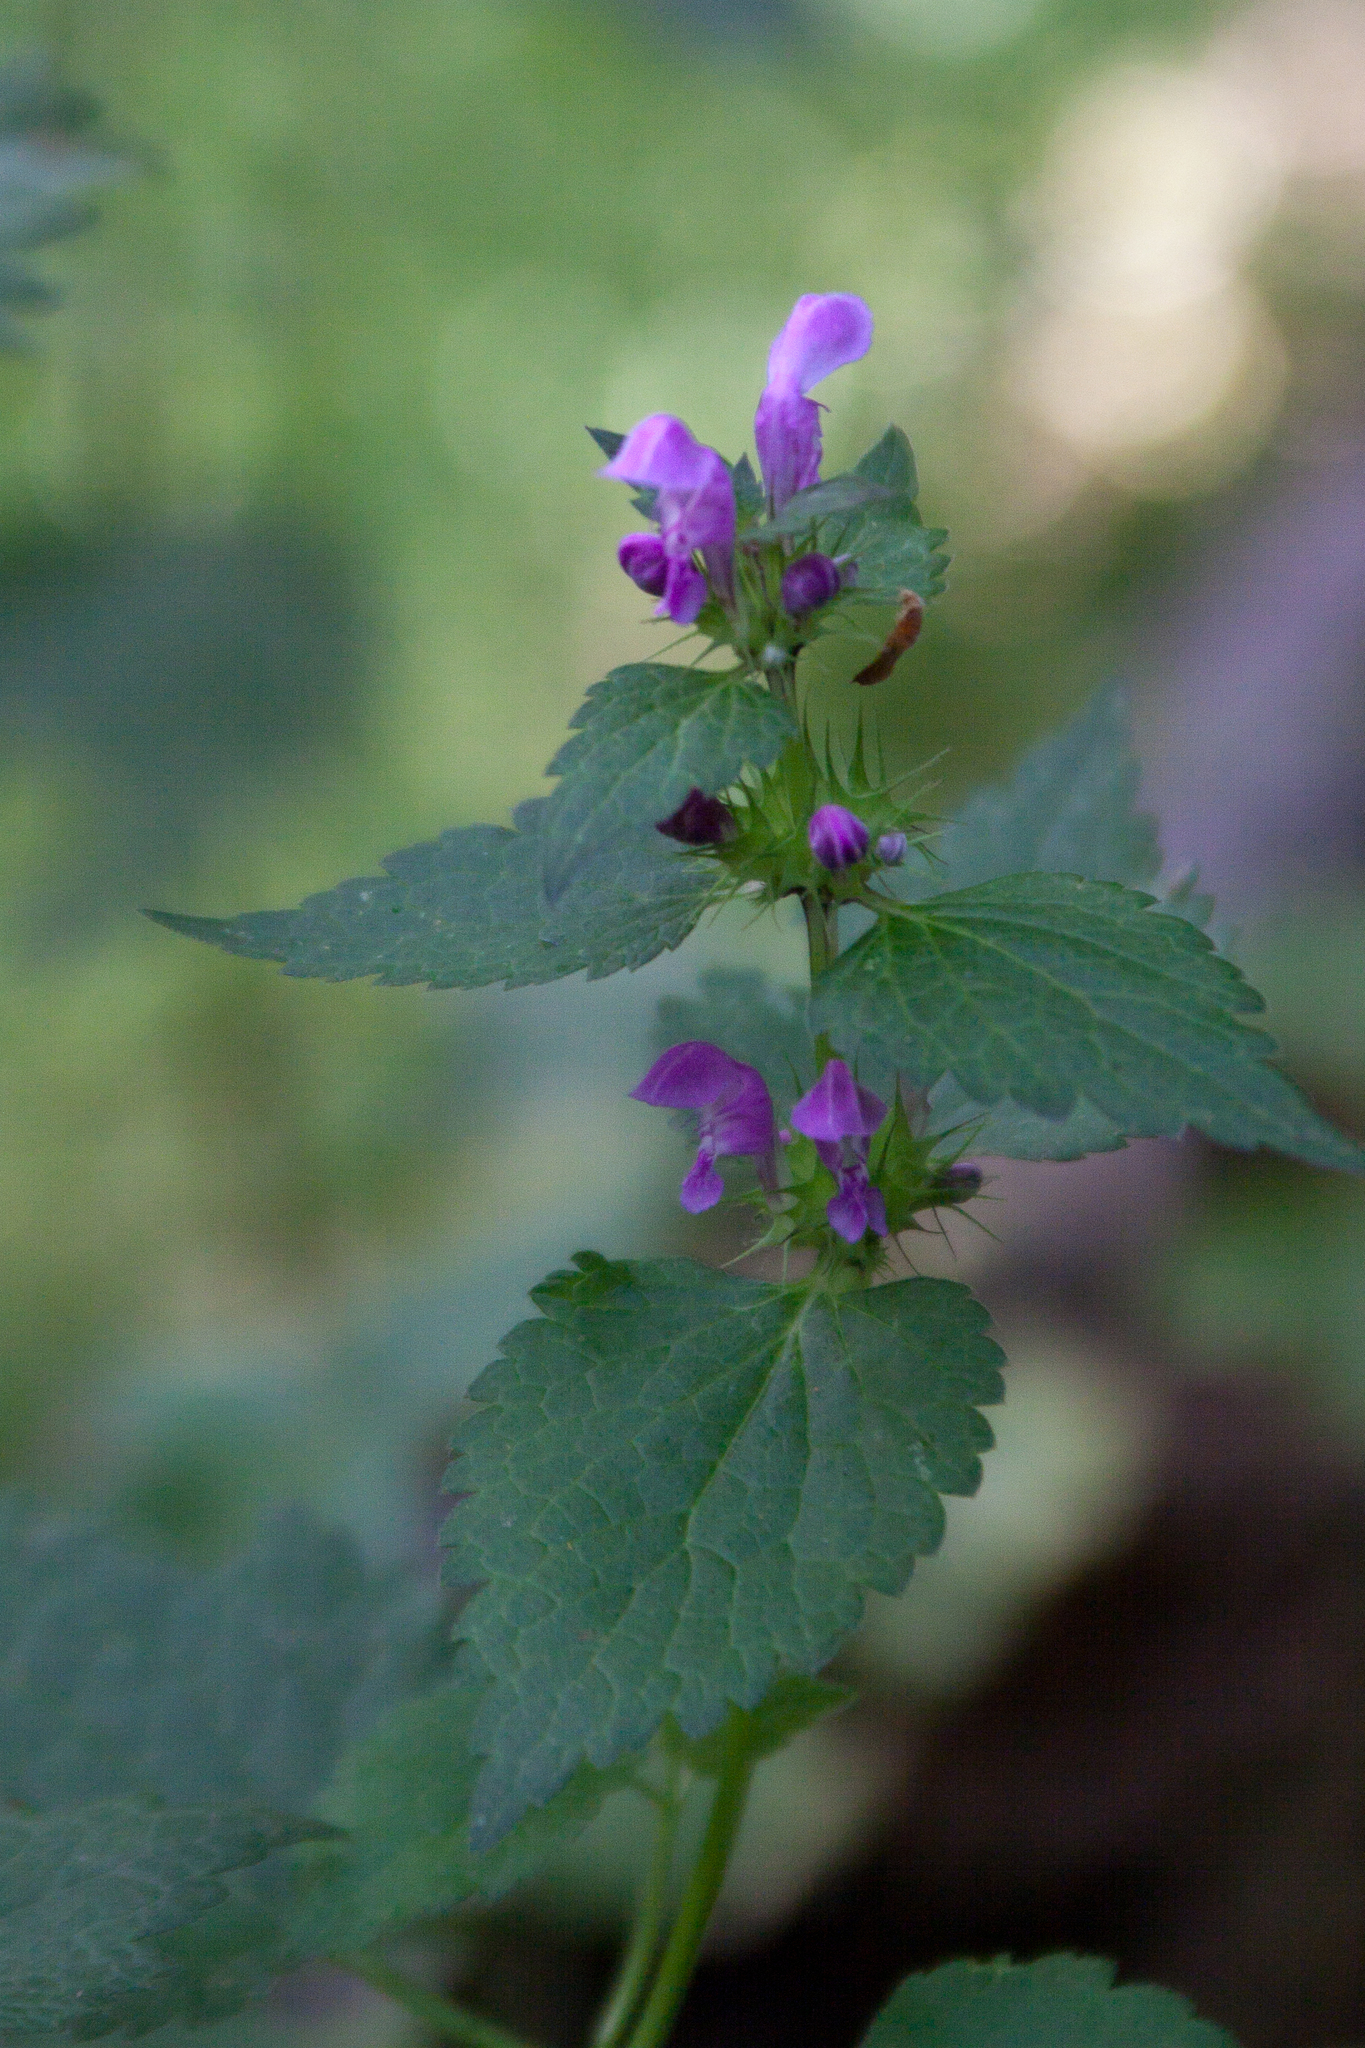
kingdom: Plantae
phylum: Tracheophyta
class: Magnoliopsida
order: Lamiales
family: Lamiaceae
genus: Lamium
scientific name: Lamium maculatum
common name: Spotted dead-nettle
